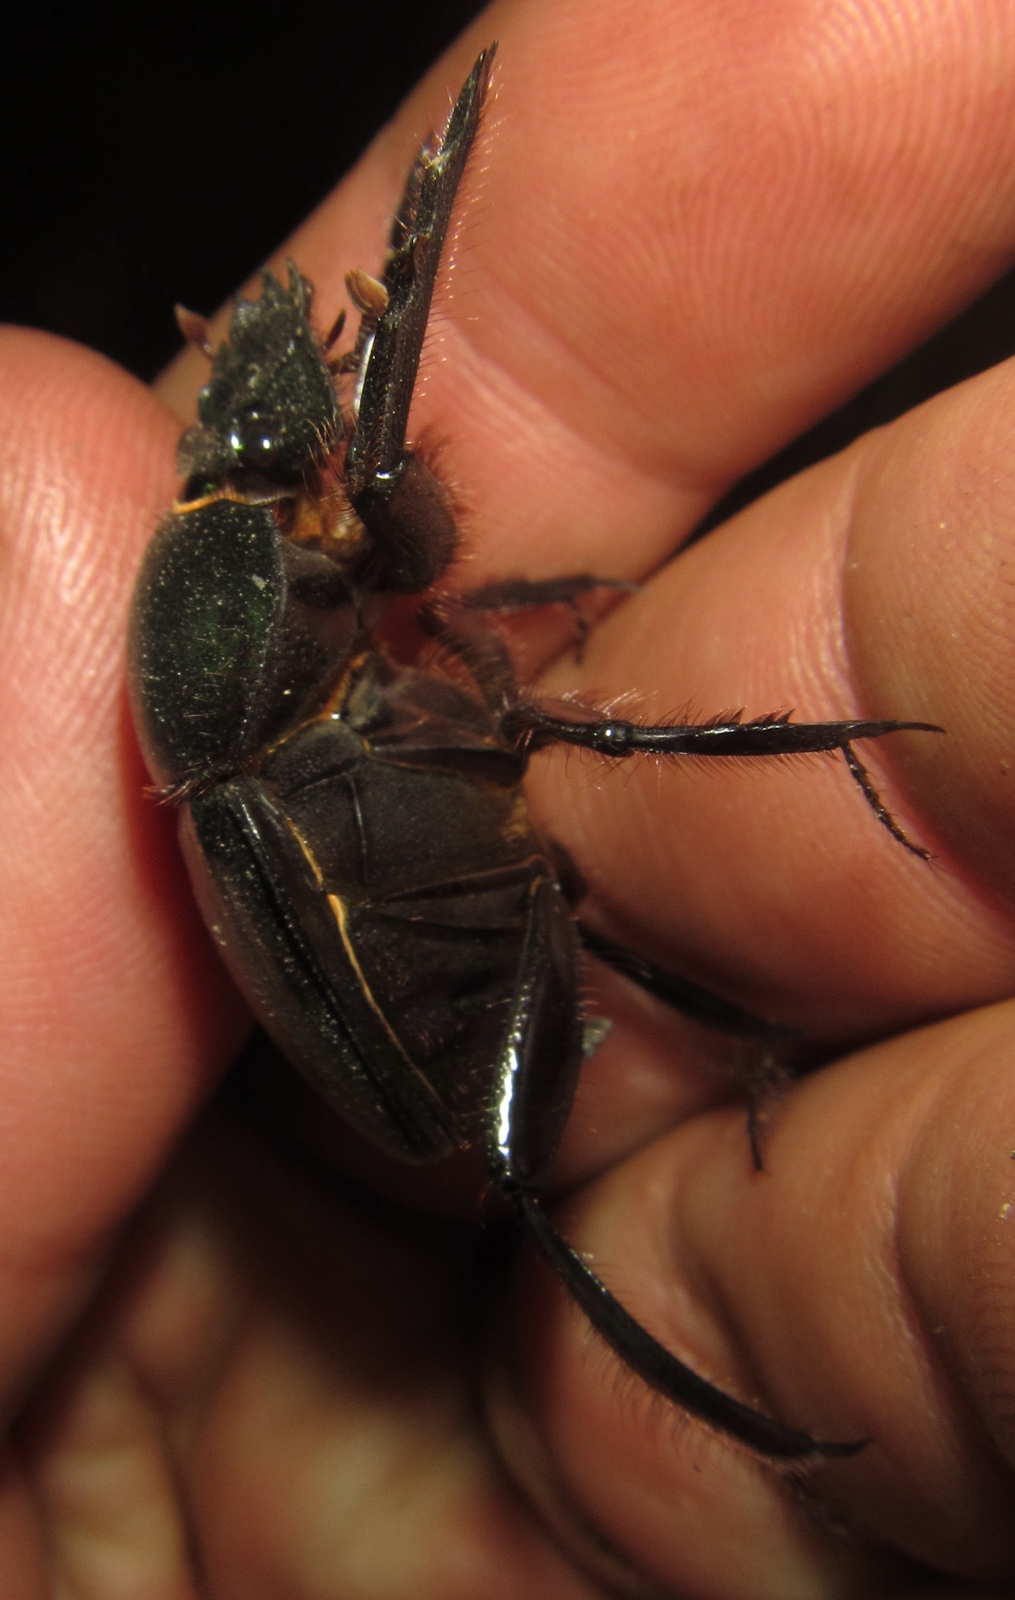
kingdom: Animalia
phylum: Arthropoda
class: Insecta
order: Coleoptera
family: Scarabaeidae
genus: Escarabaeus
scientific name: Escarabaeus satyrus
